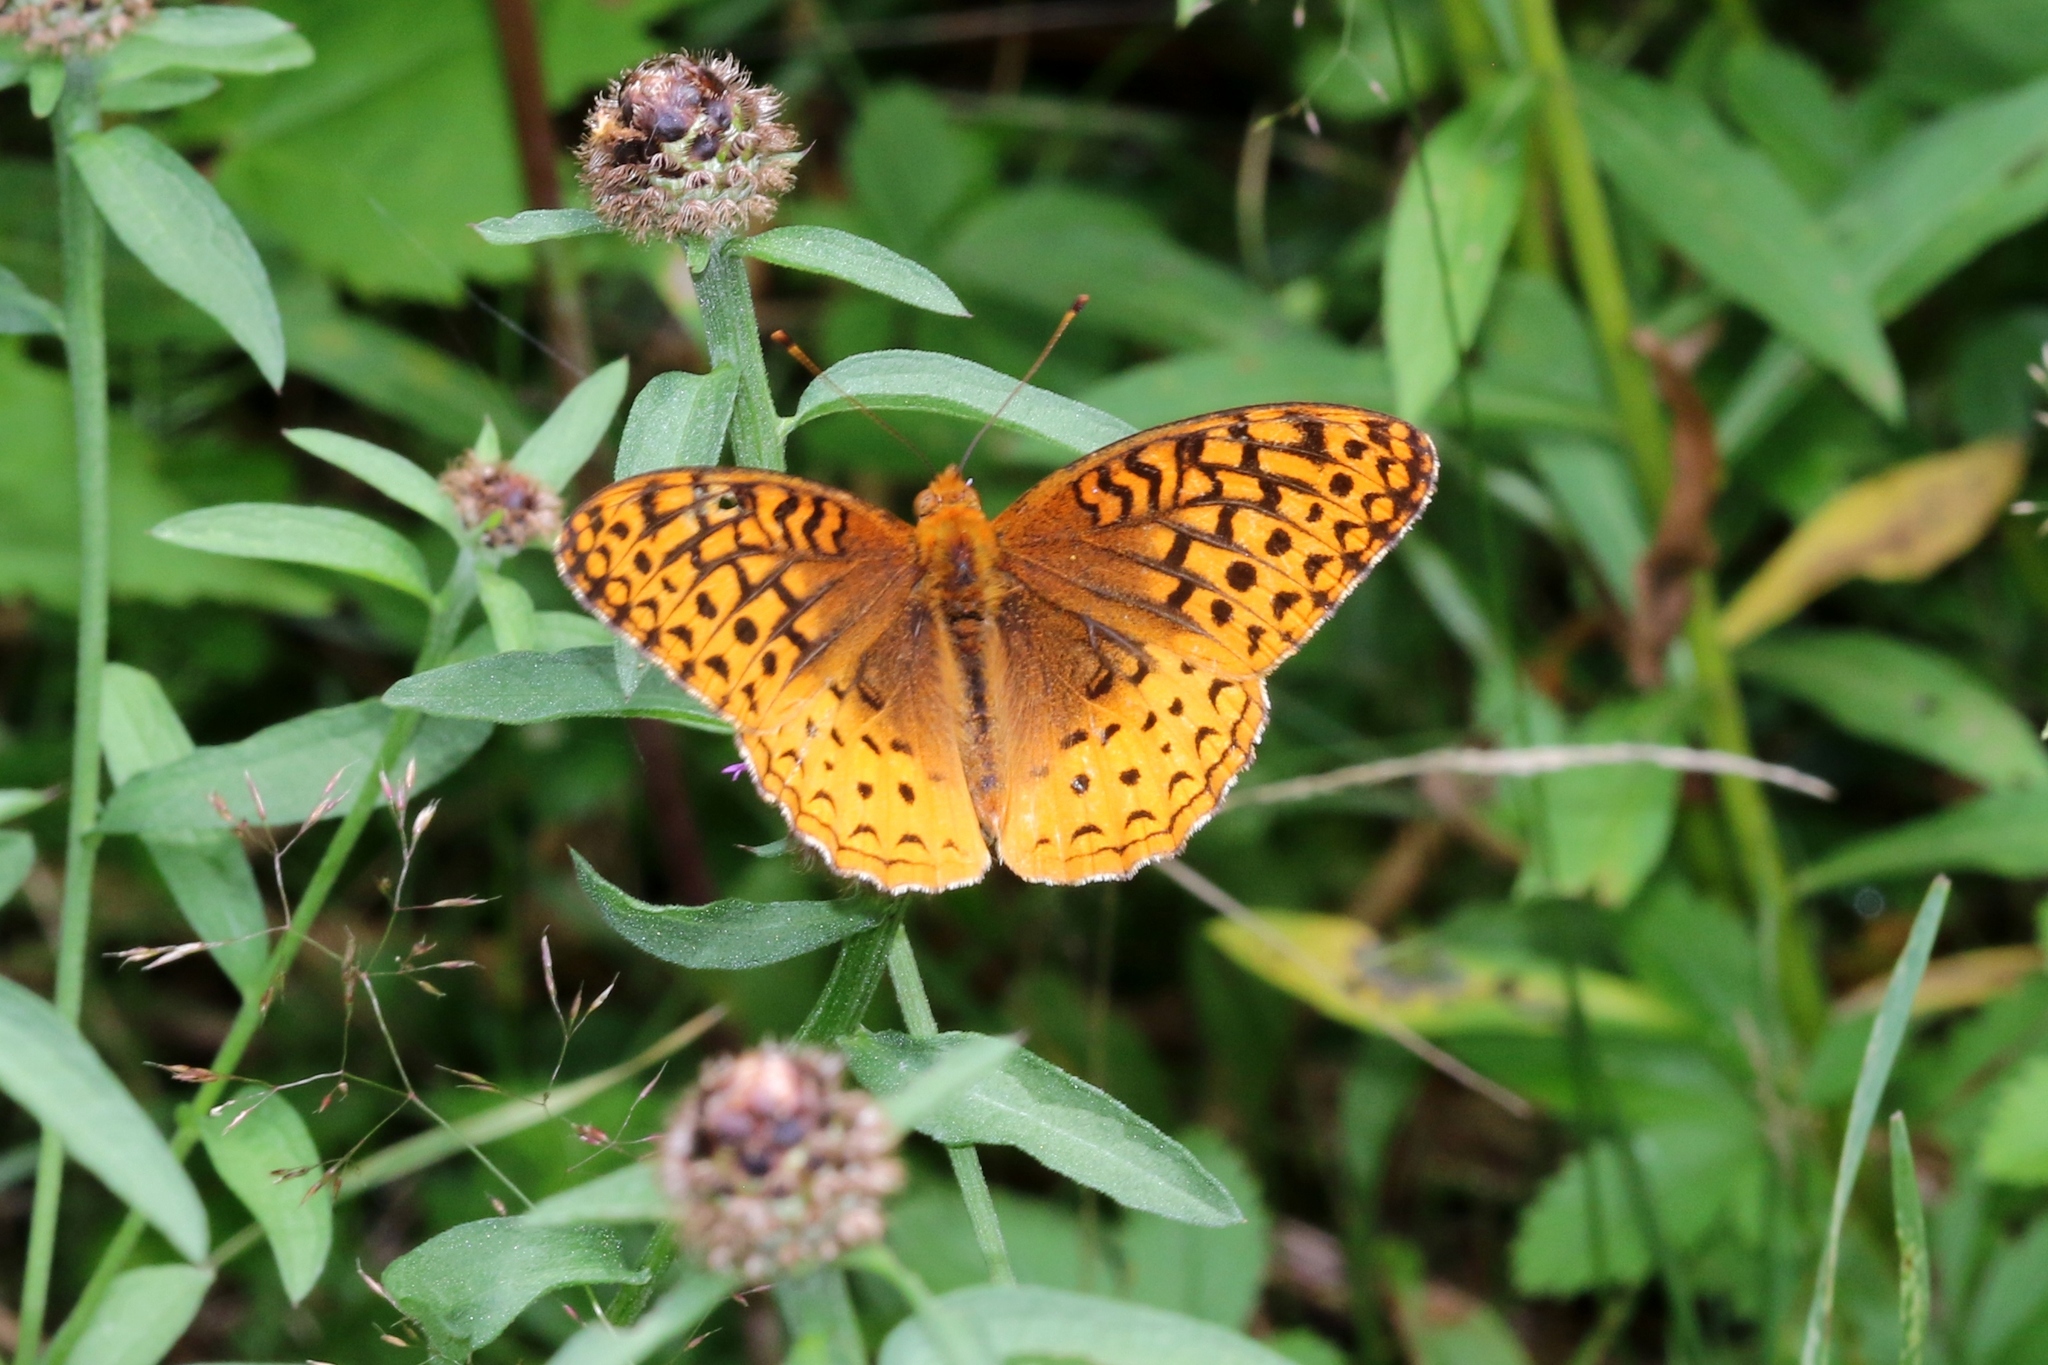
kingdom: Animalia
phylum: Arthropoda
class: Insecta
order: Lepidoptera
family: Nymphalidae
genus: Speyeria
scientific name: Speyeria cybele
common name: Great spangled fritillary
